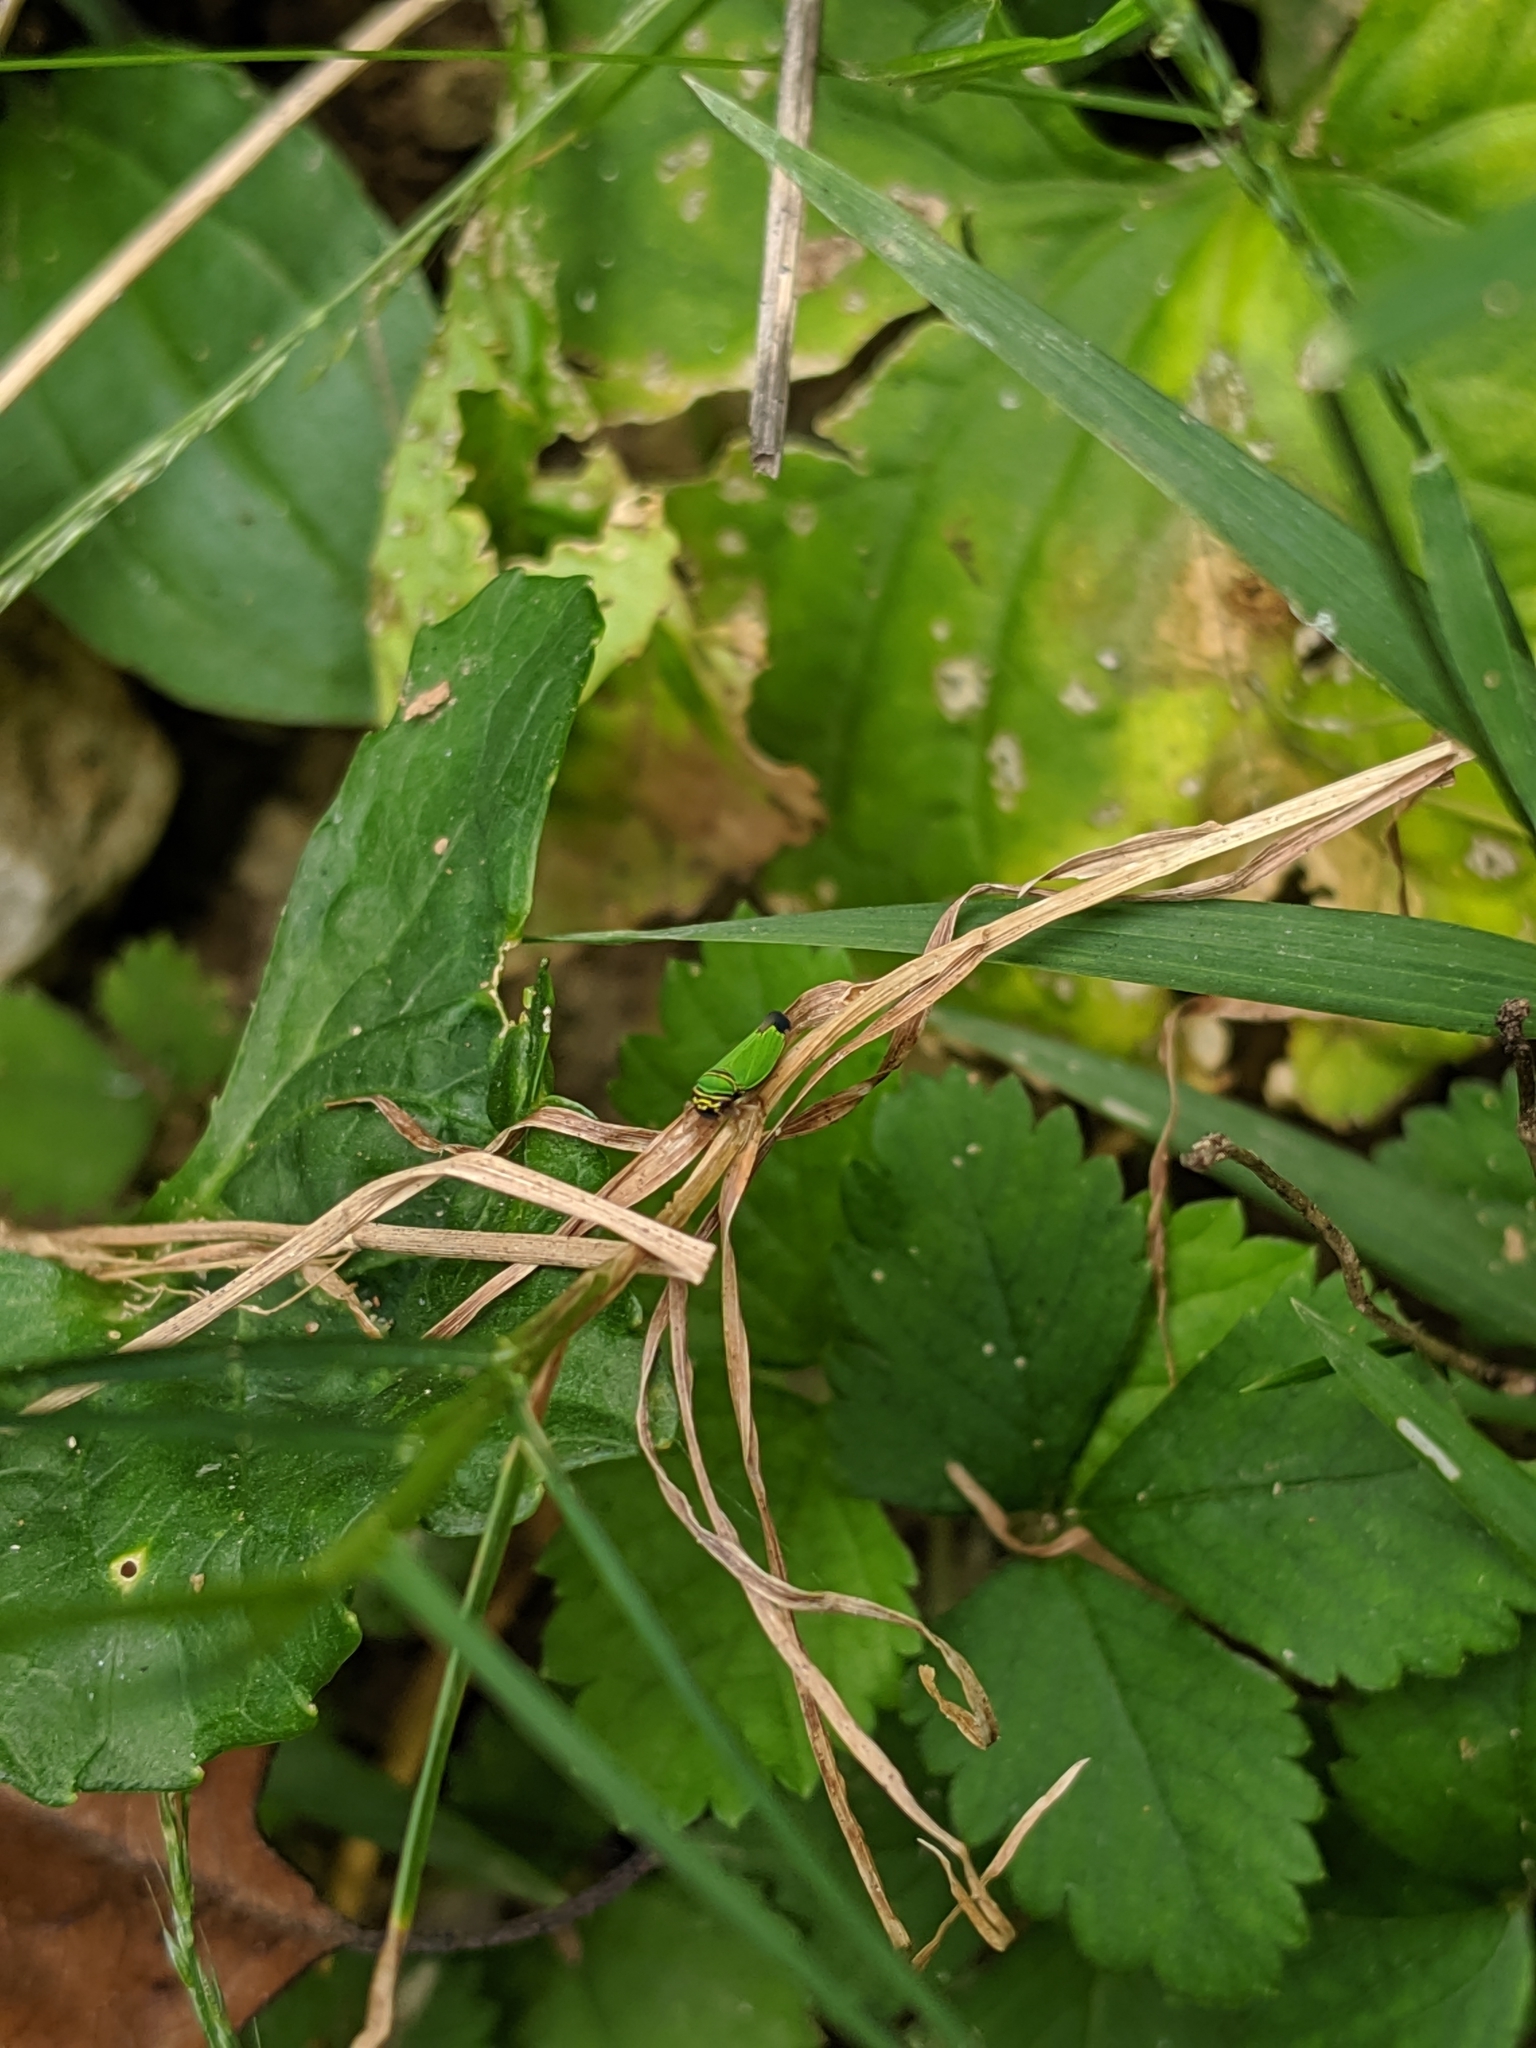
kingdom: Animalia
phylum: Arthropoda
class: Insecta
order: Hemiptera
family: Cicadellidae
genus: Tylozygus
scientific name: Tylozygus geometricus
